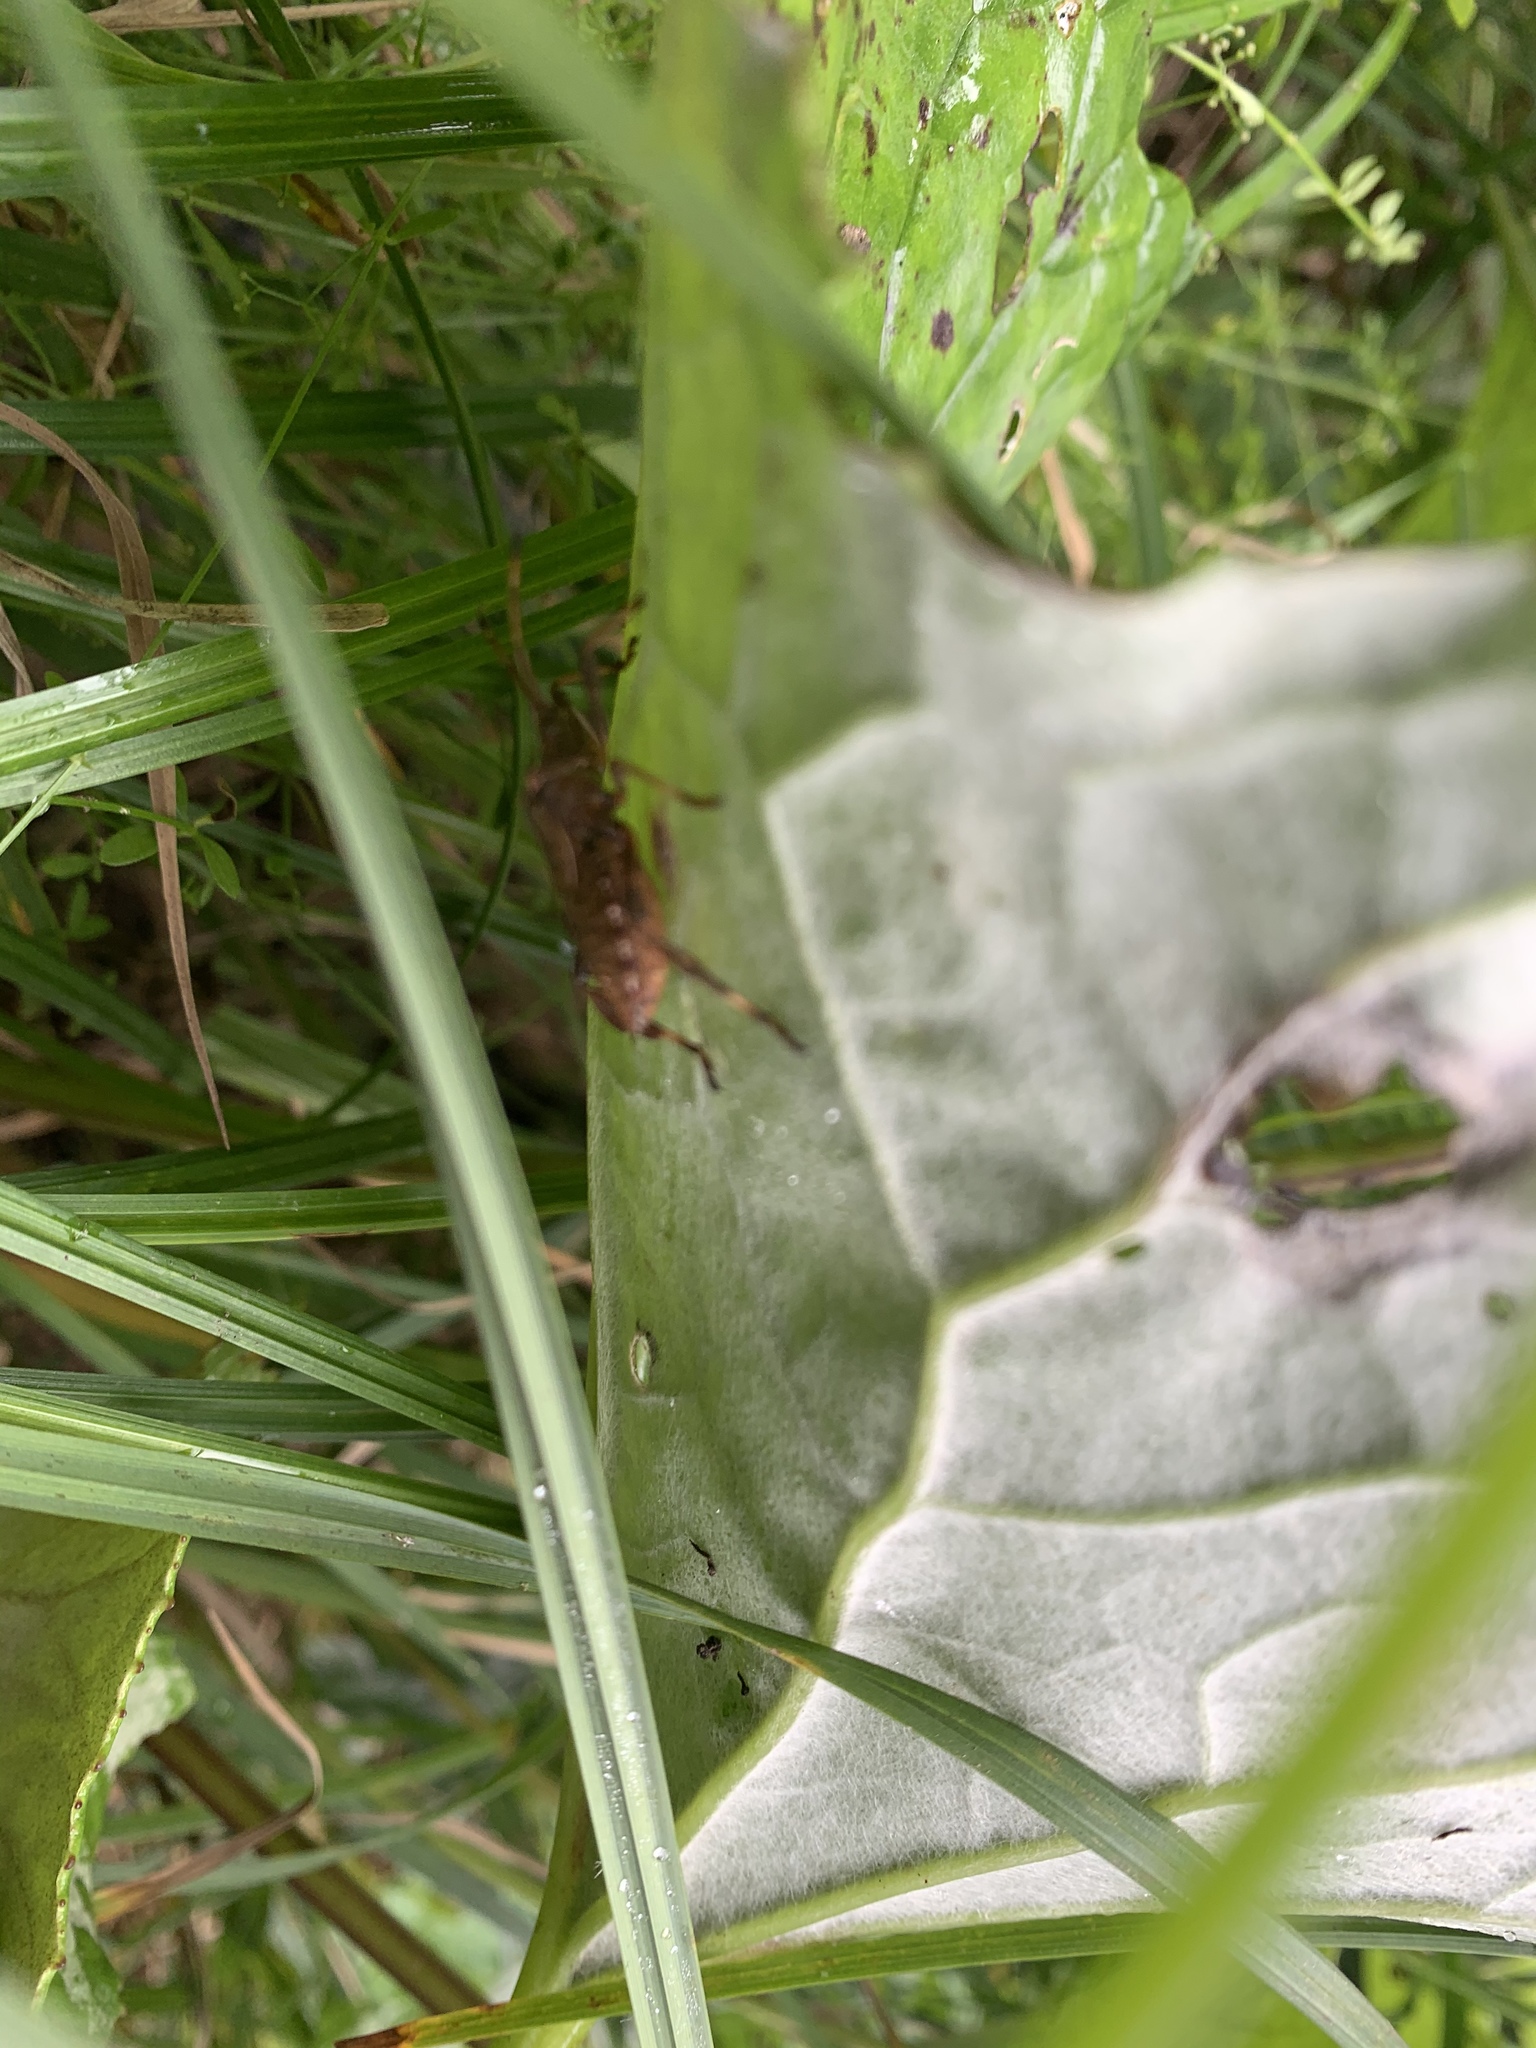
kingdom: Animalia
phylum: Arthropoda
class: Insecta
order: Hemiptera
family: Coreidae
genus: Acanthocephala
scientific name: Acanthocephala terminalis
